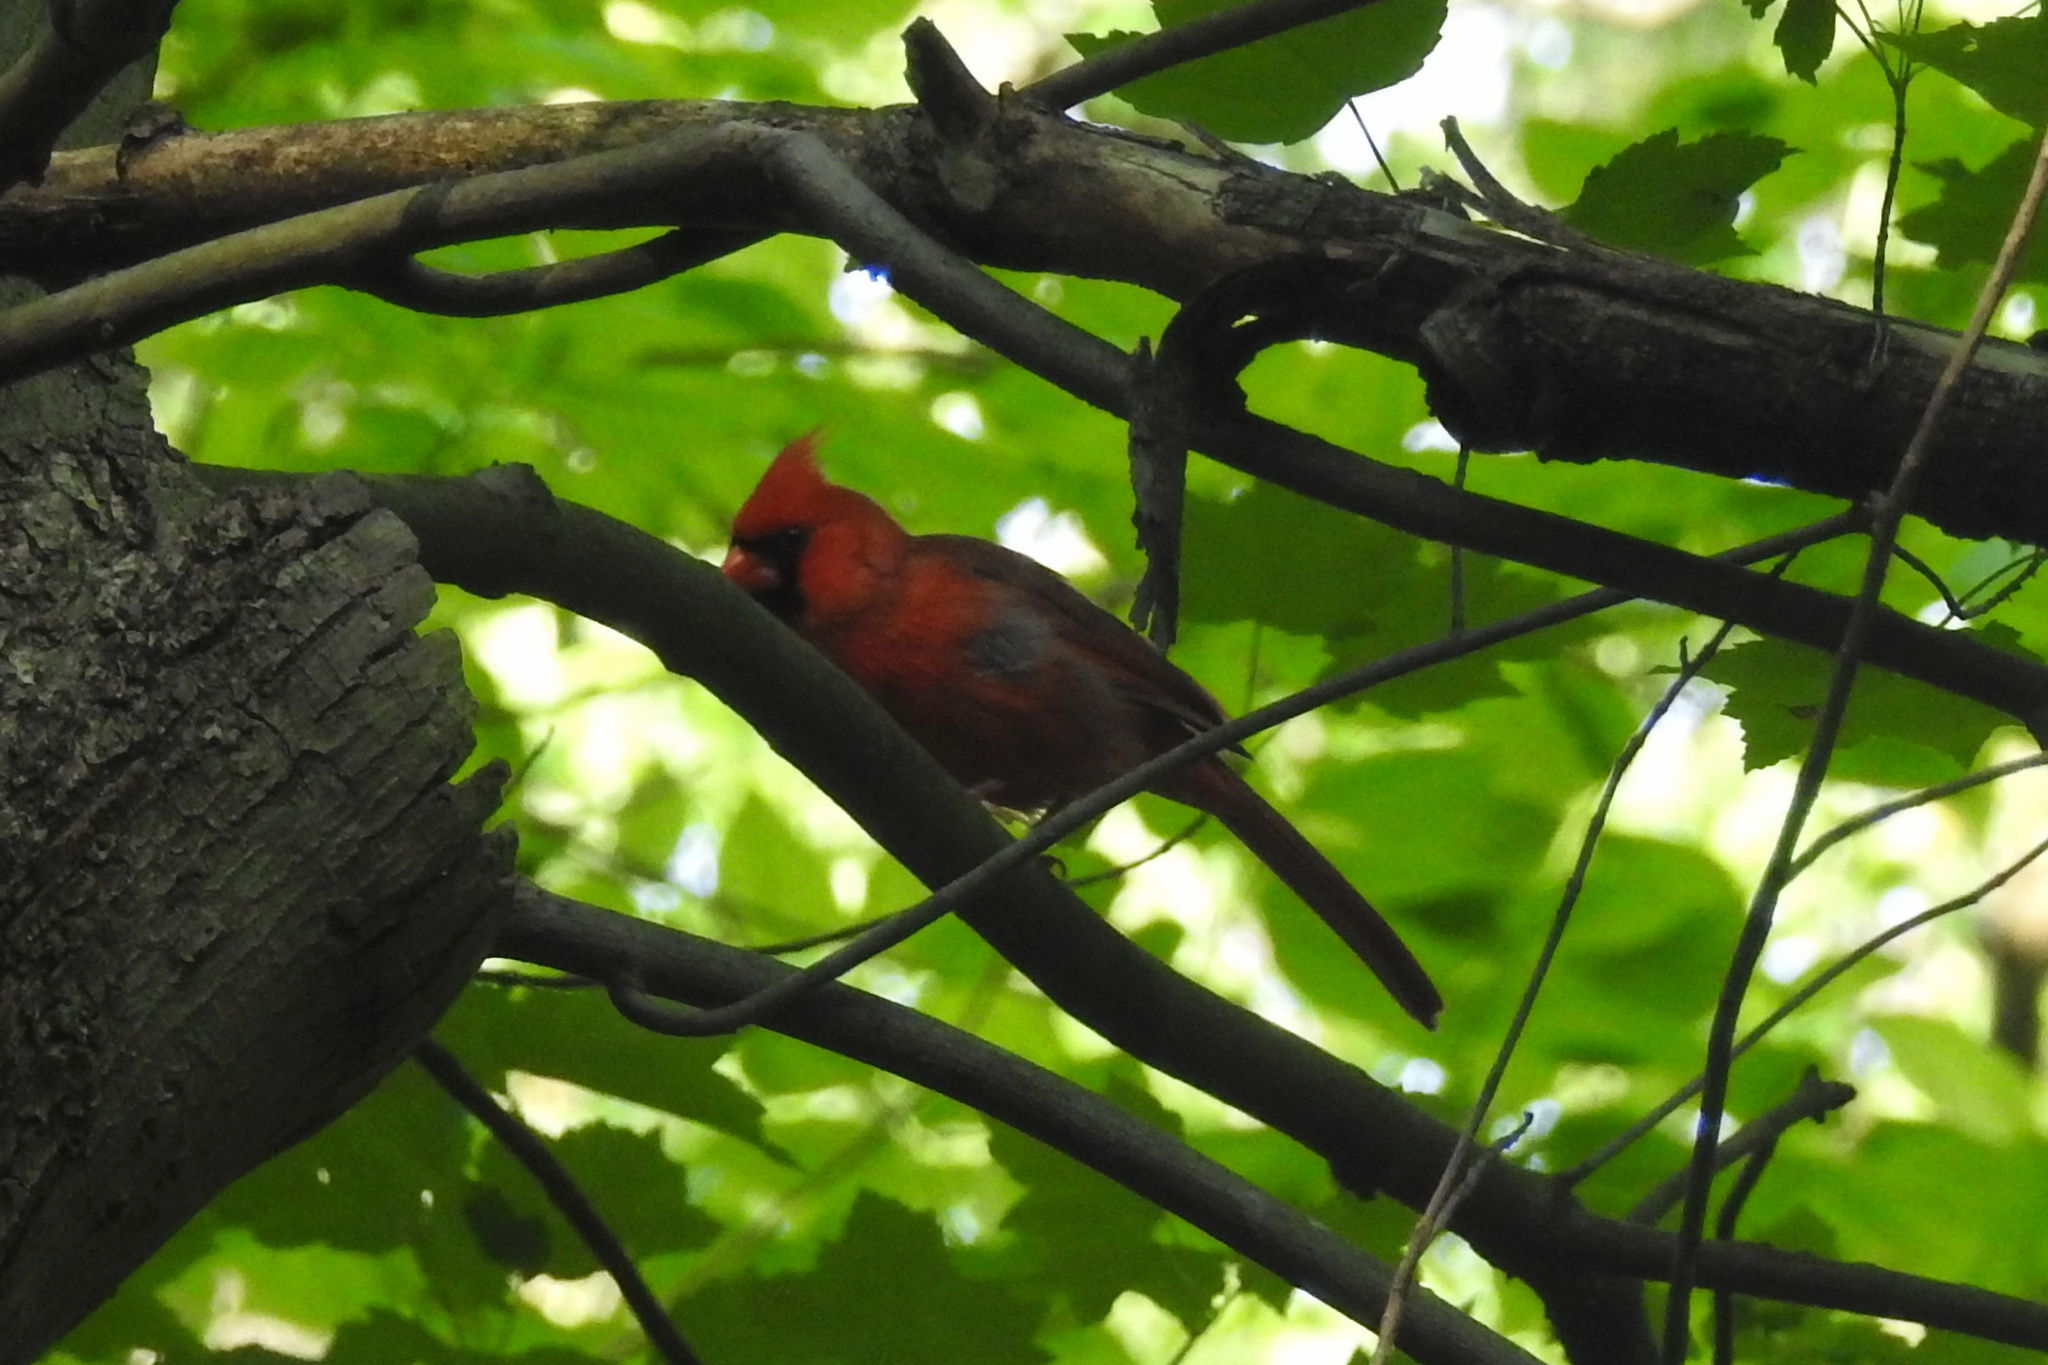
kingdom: Animalia
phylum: Chordata
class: Aves
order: Passeriformes
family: Cardinalidae
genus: Cardinalis
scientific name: Cardinalis cardinalis
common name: Northern cardinal
